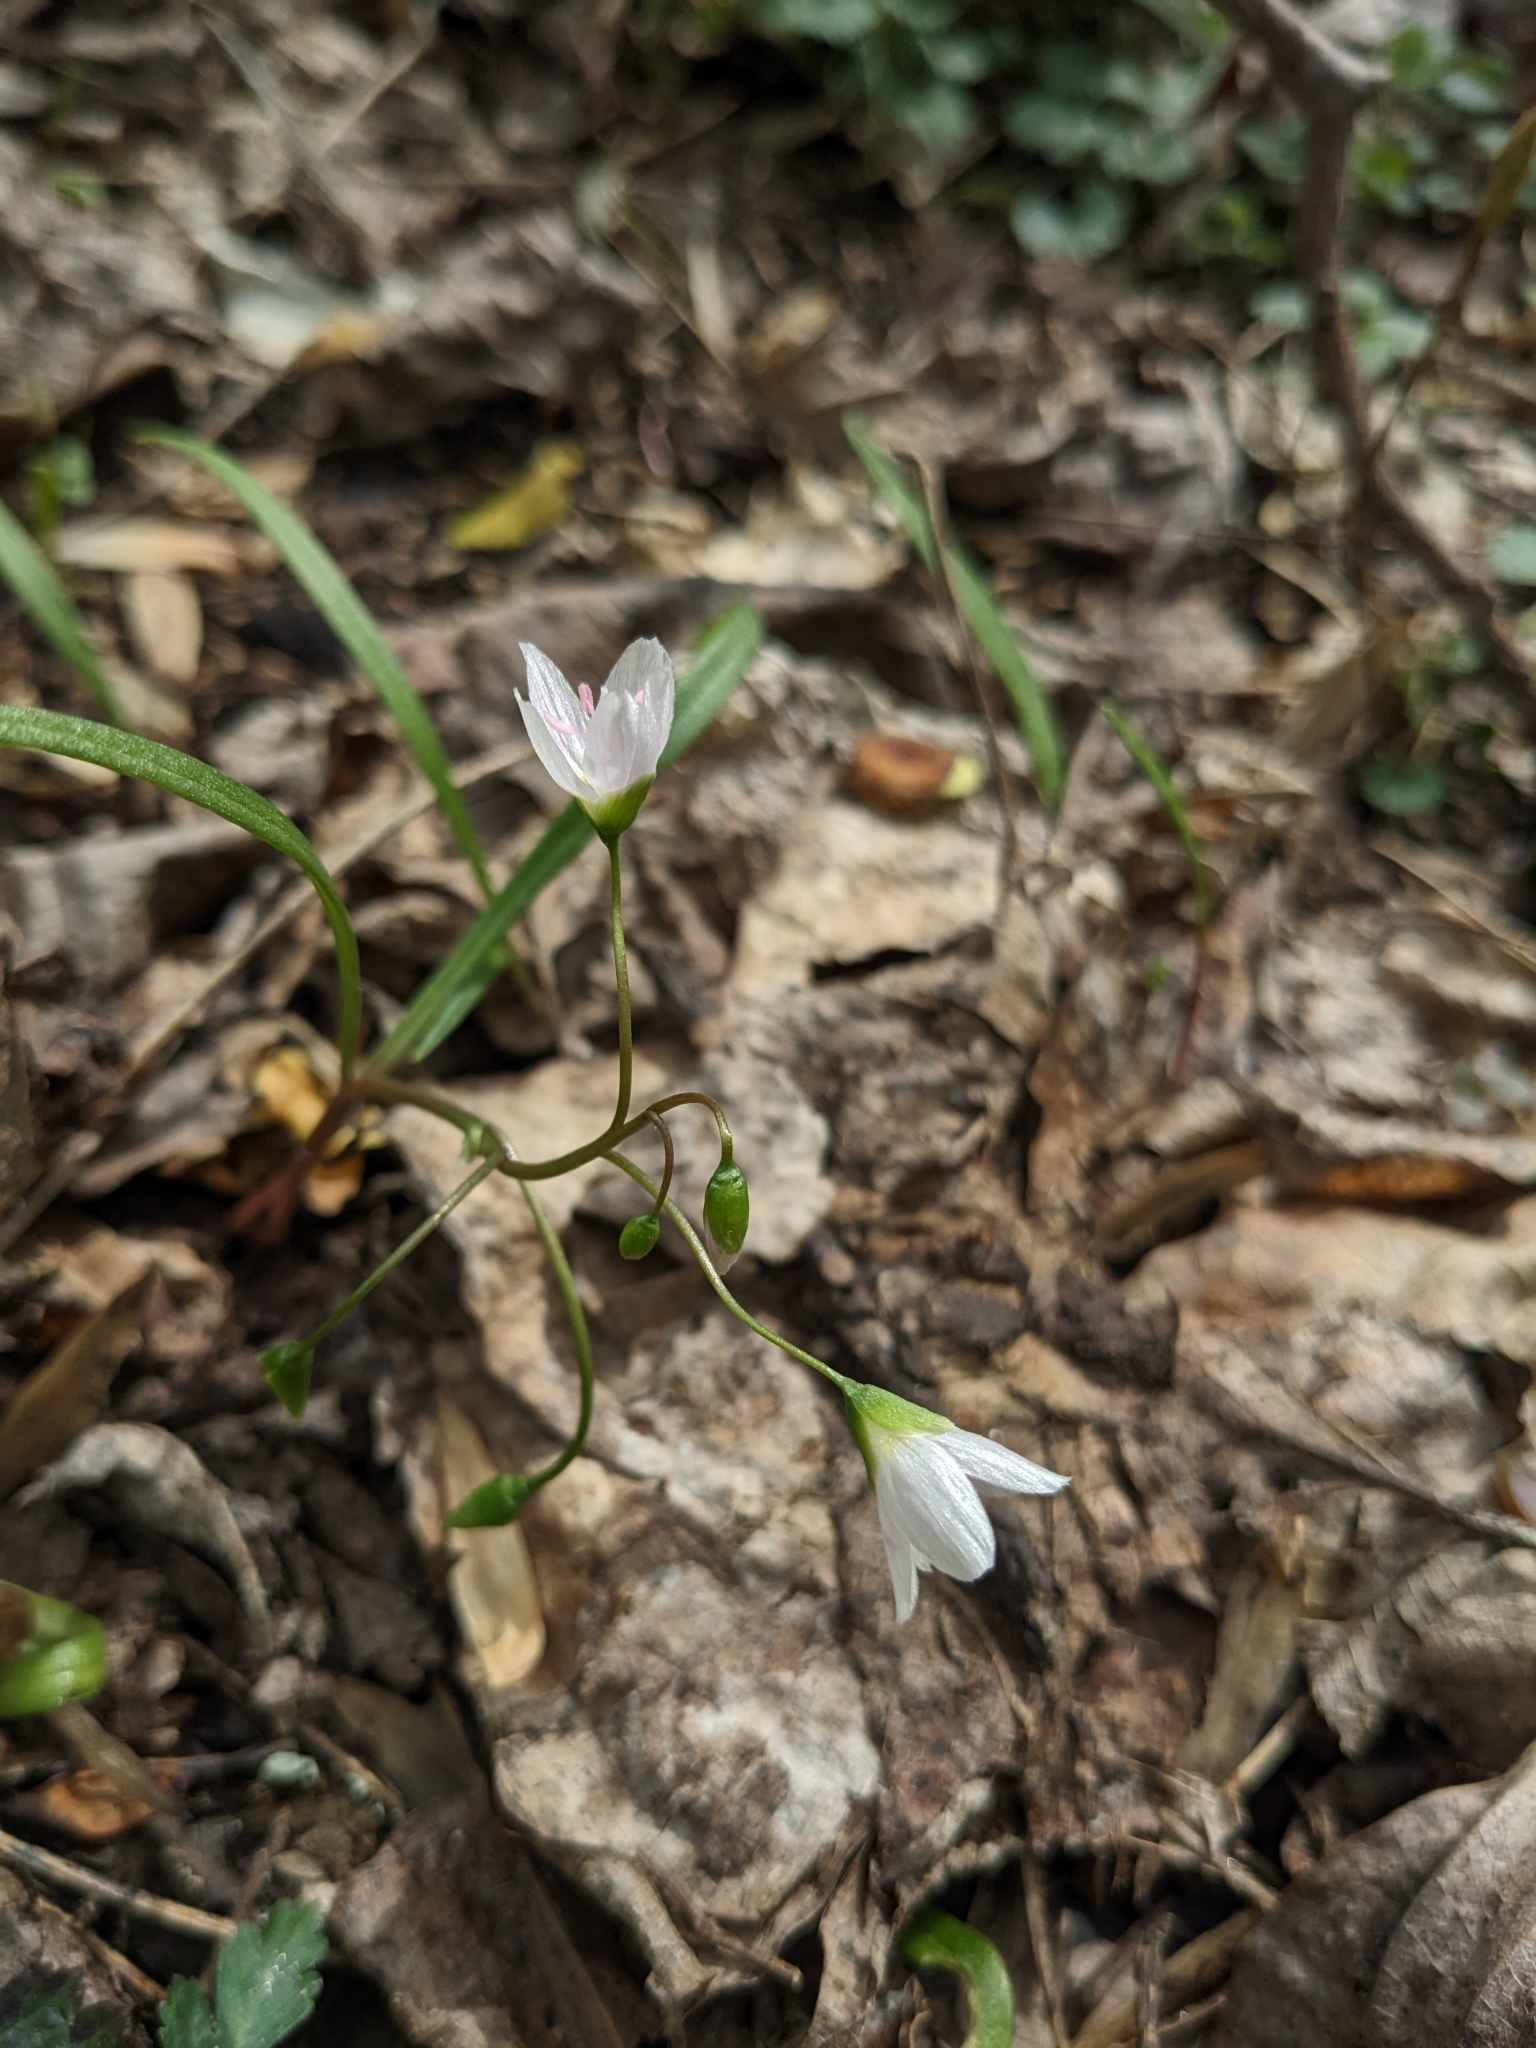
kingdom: Plantae
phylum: Tracheophyta
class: Magnoliopsida
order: Caryophyllales
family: Montiaceae
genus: Claytonia
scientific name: Claytonia virginica
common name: Virginia springbeauty
